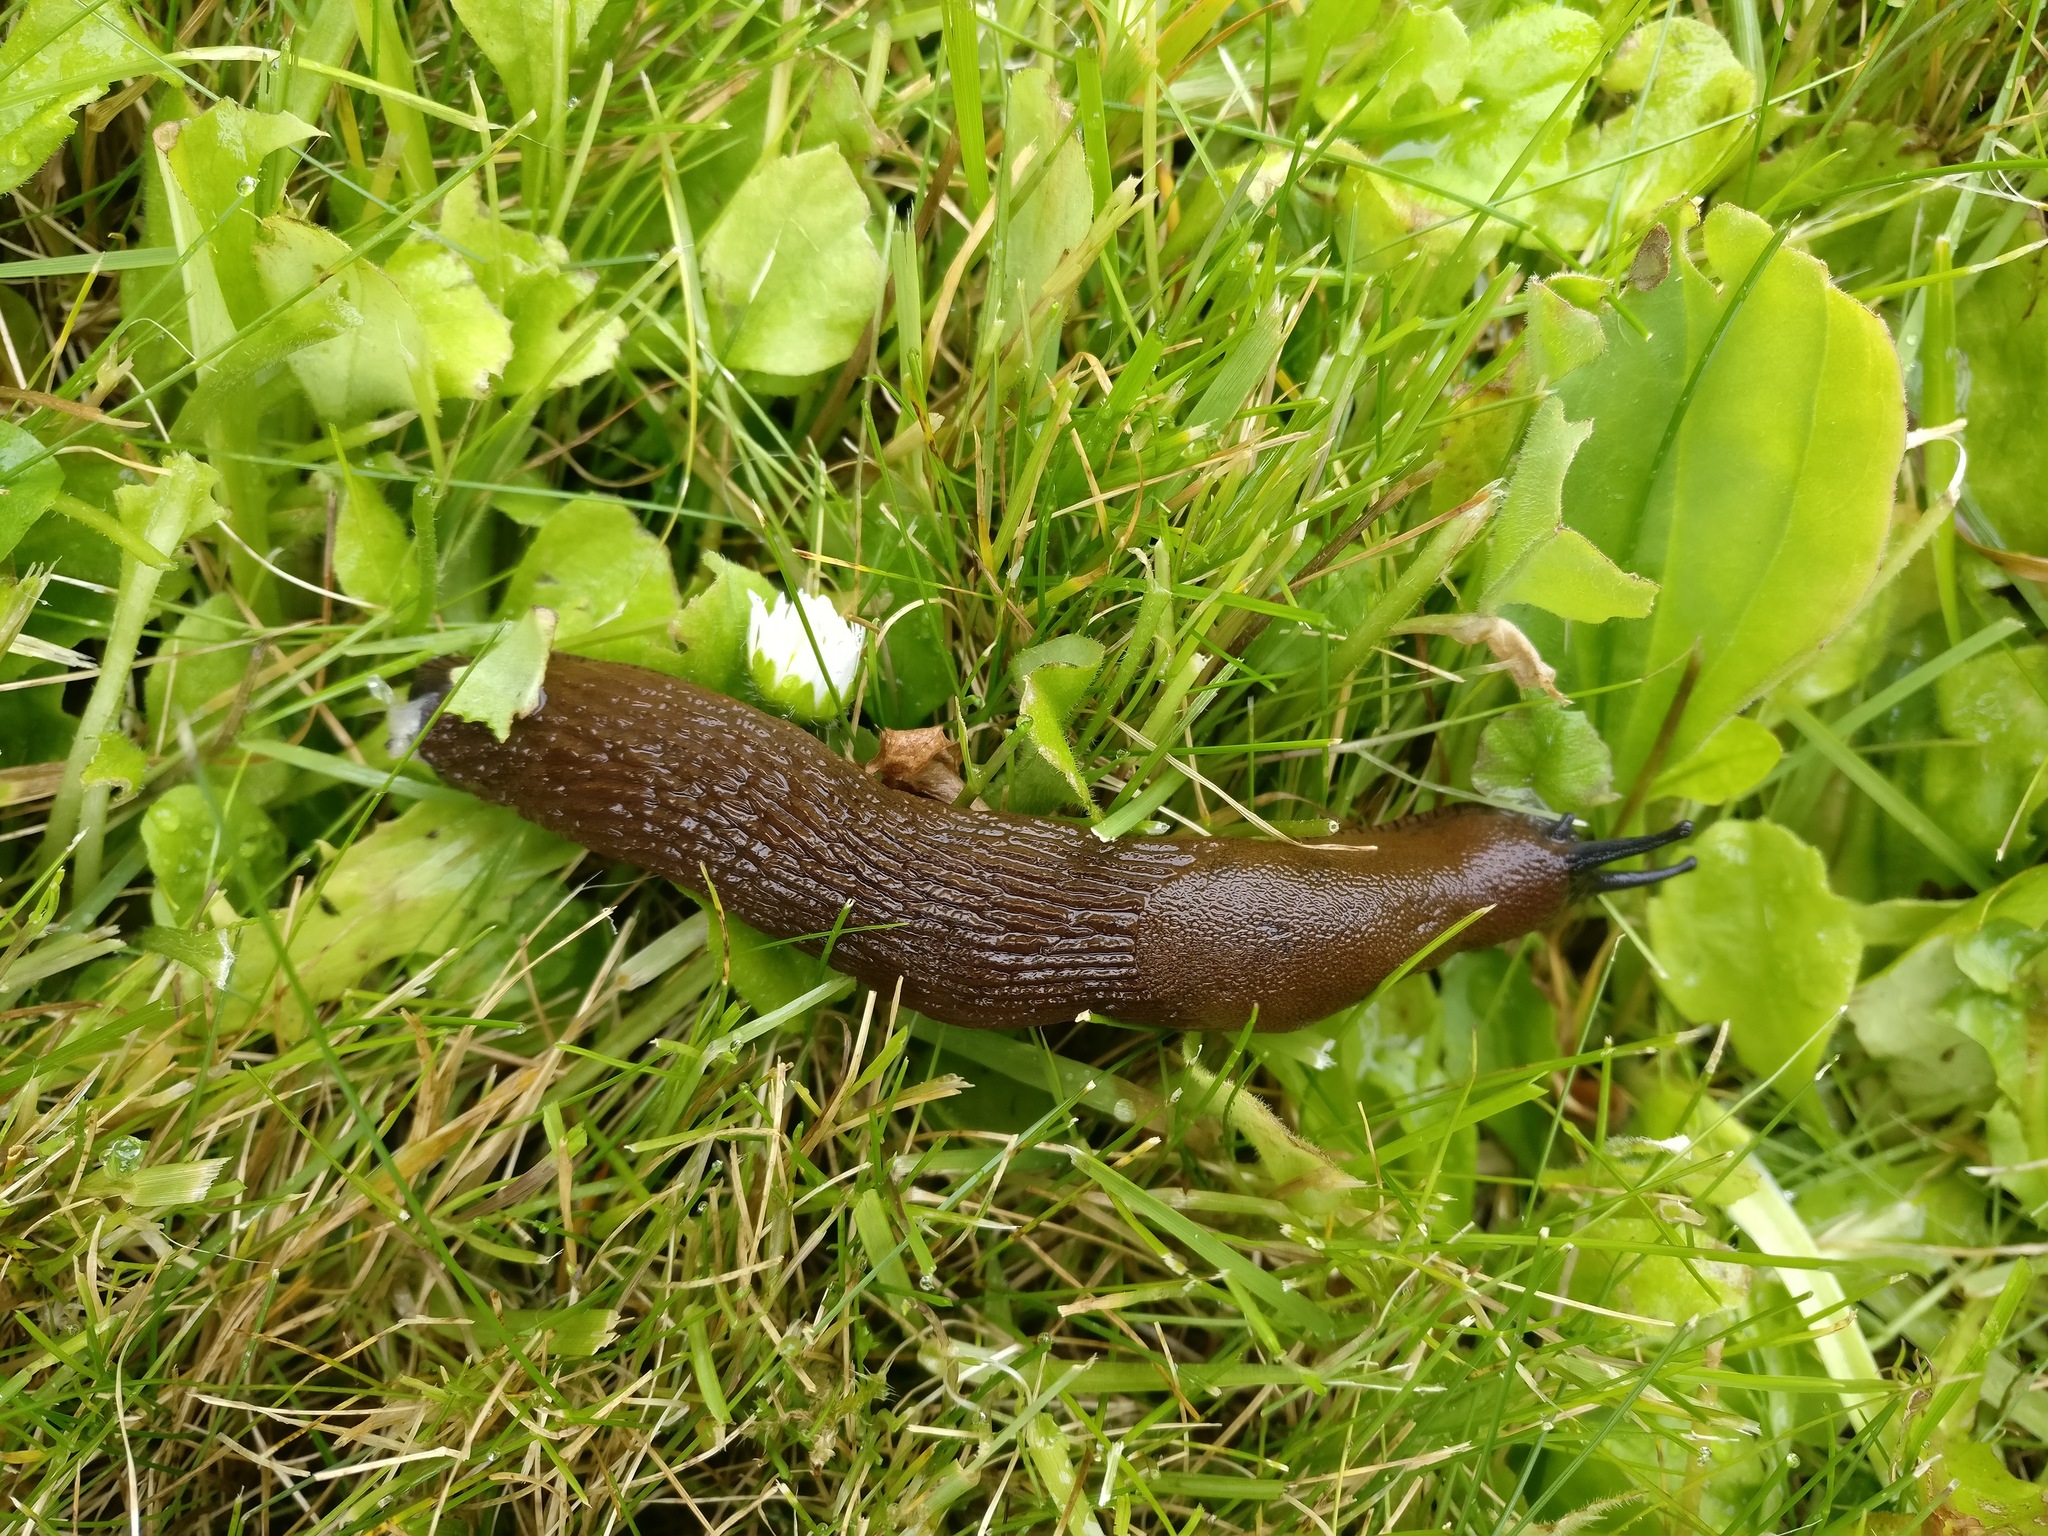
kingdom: Animalia
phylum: Mollusca
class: Gastropoda
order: Stylommatophora
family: Arionidae
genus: Arion
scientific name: Arion vulgaris
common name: Lusitanian slug
